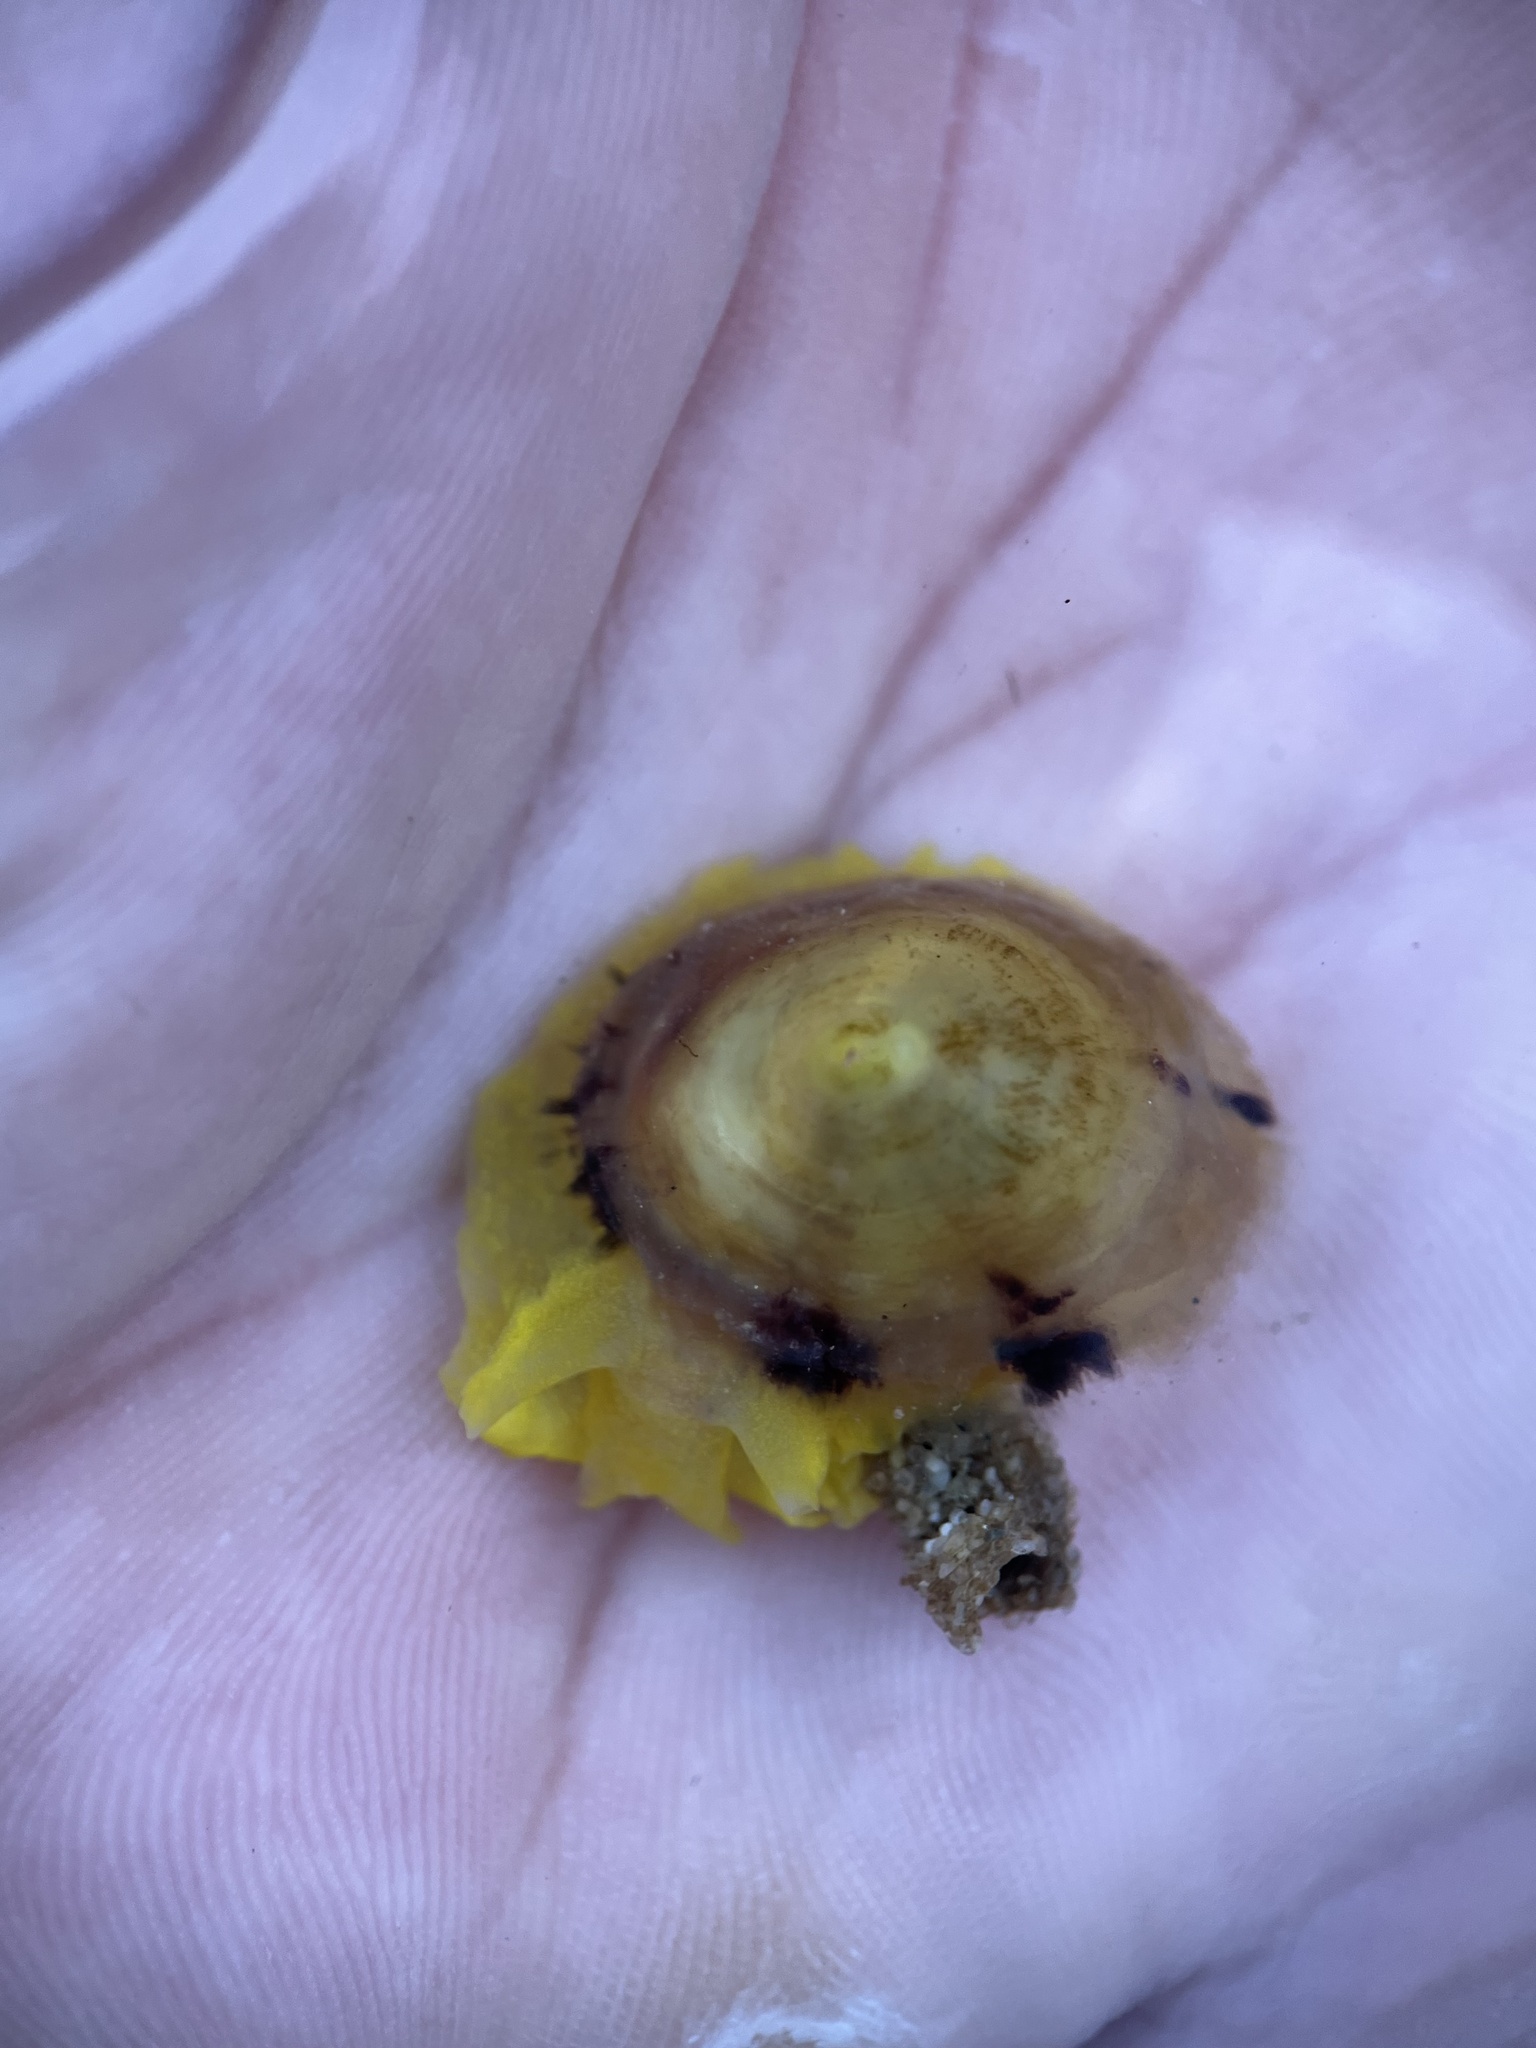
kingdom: Animalia
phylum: Mollusca
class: Gastropoda
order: Umbraculida
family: Tylodinidae
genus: Tylodina
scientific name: Tylodina fungina
